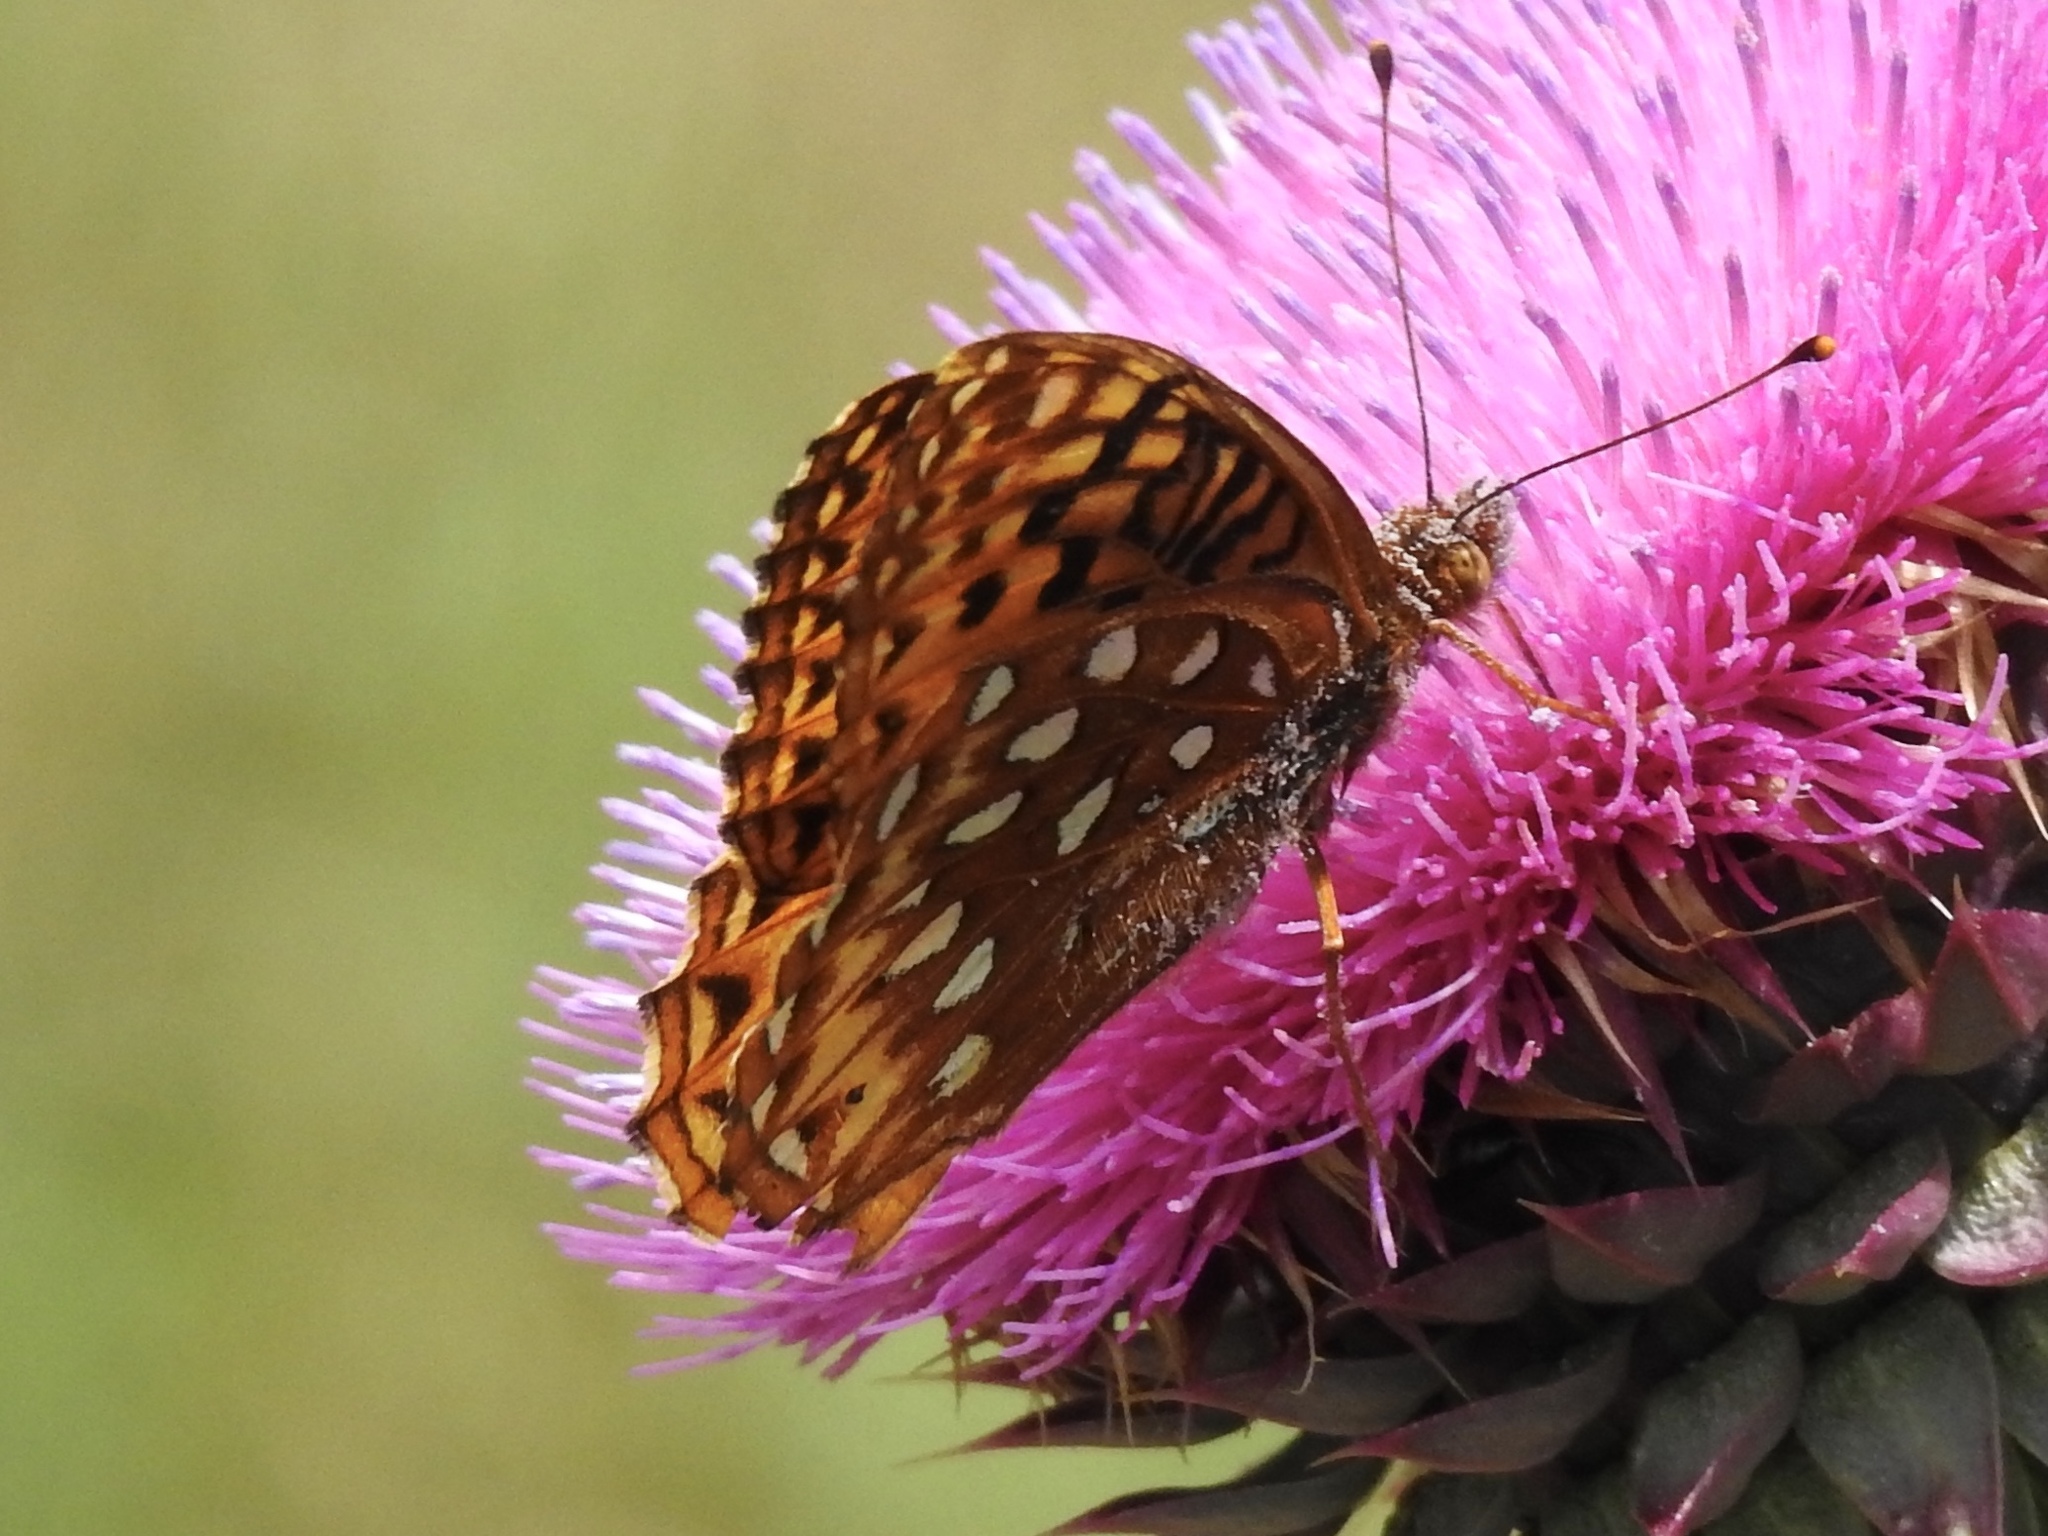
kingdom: Animalia
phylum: Arthropoda
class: Insecta
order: Lepidoptera
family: Nymphalidae
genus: Speyeria
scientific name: Speyeria atlantis
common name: Atlantis fritillary
